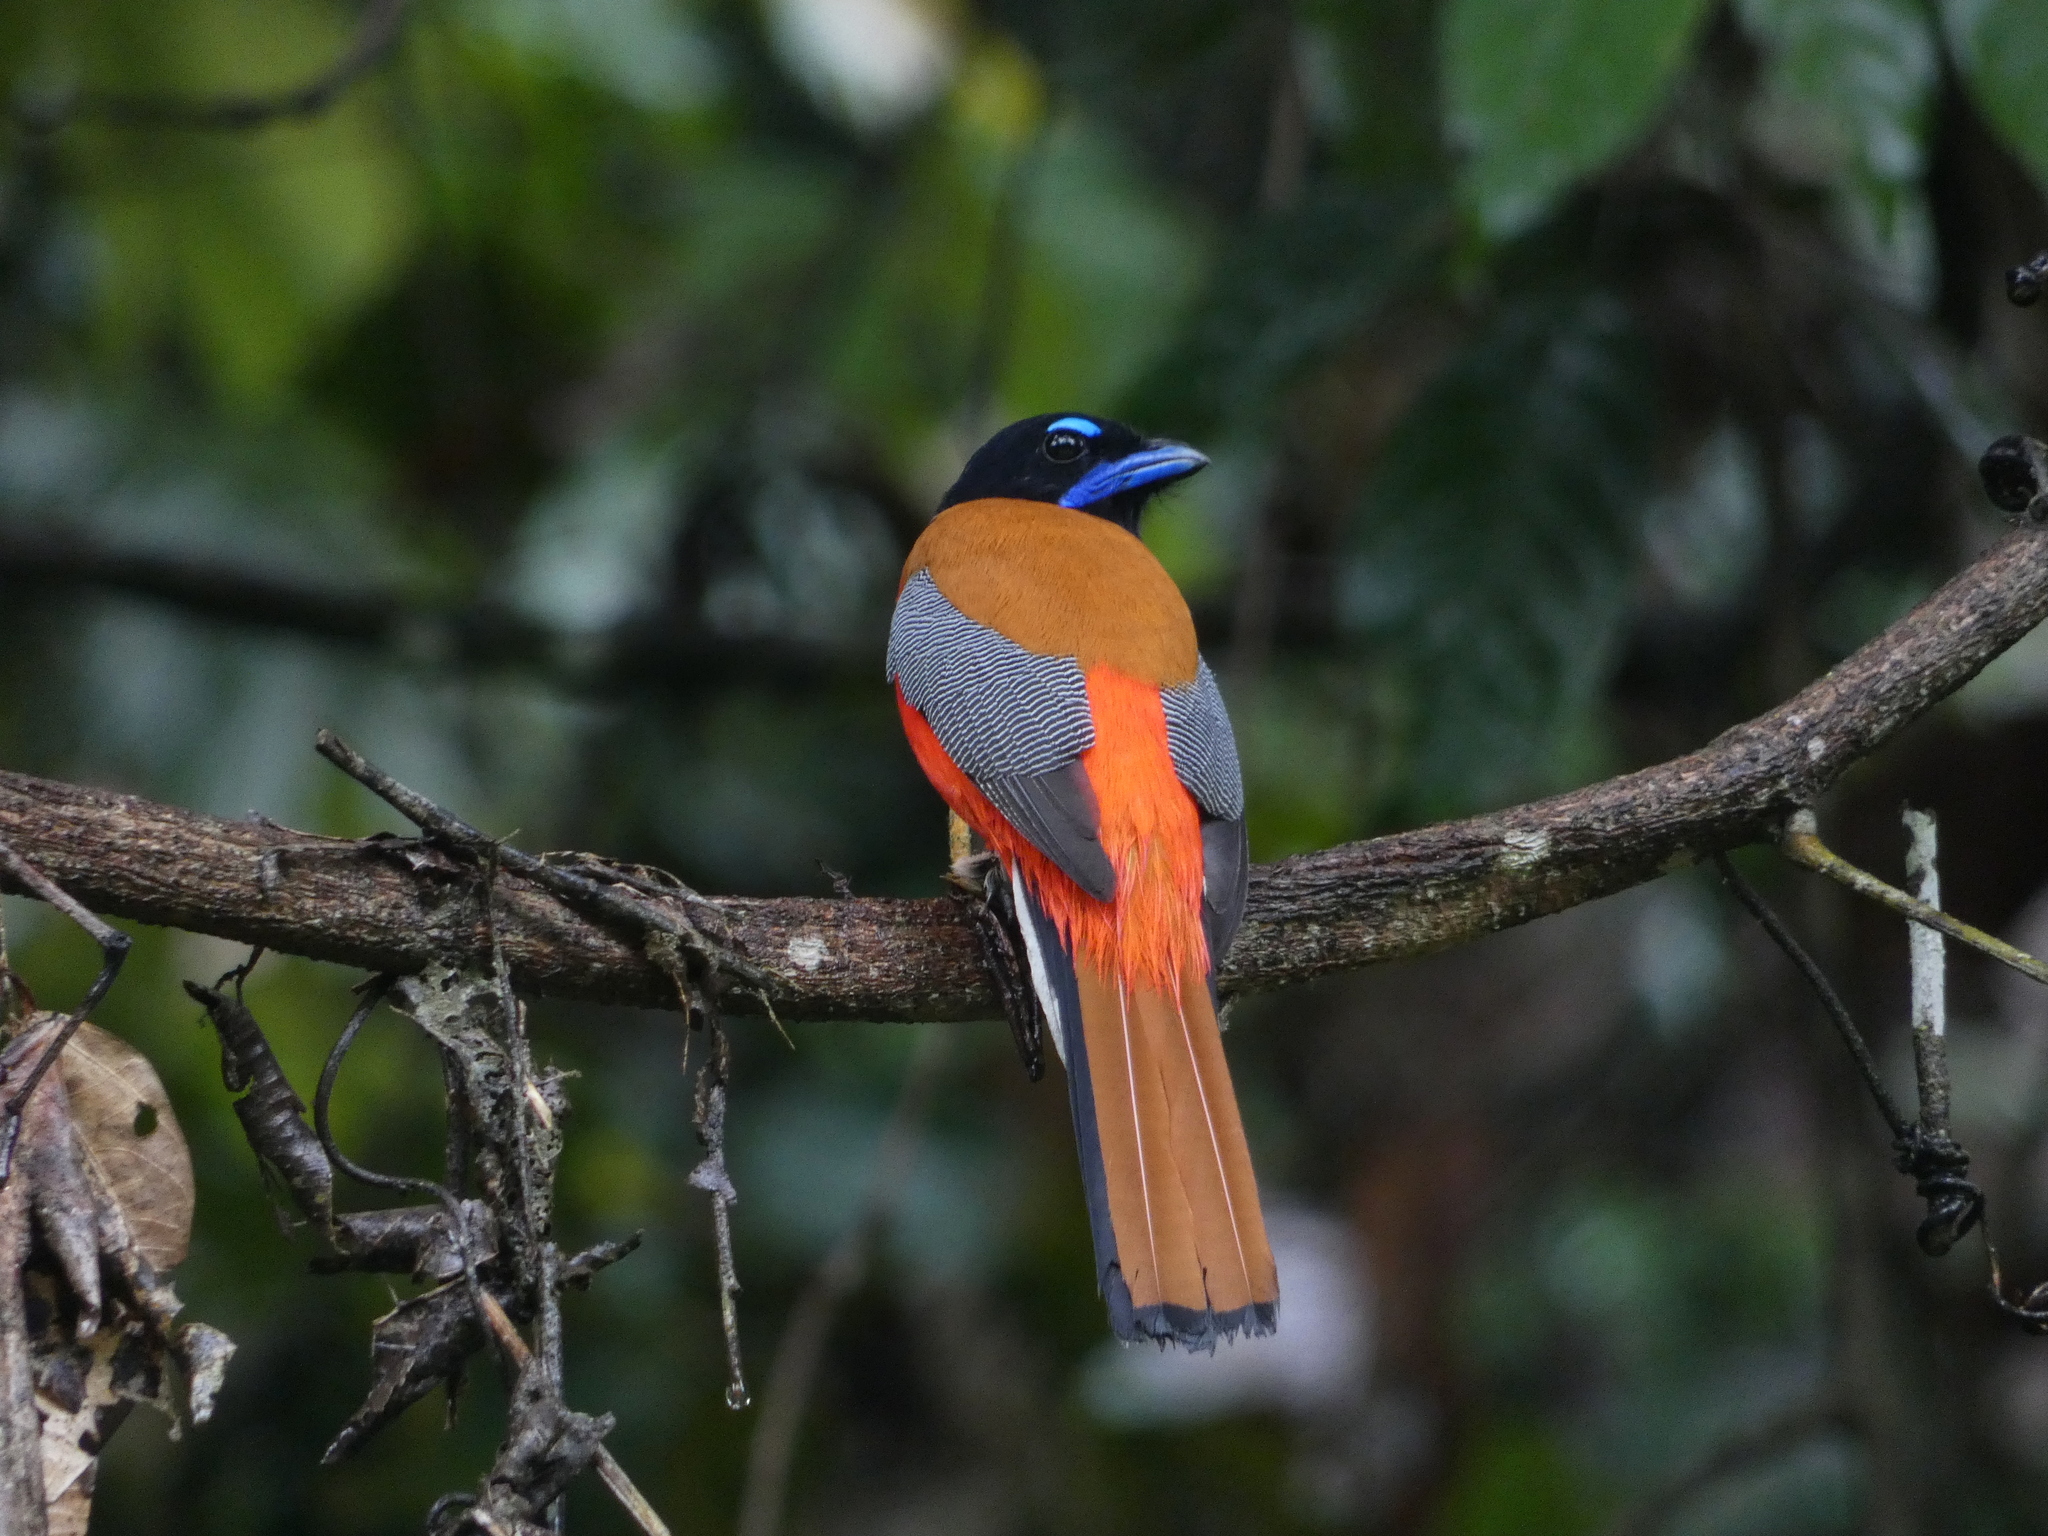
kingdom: Animalia
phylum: Chordata
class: Aves
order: Trogoniformes
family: Trogonidae
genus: Harpactes
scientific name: Harpactes duvaucelii
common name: Scarlet-rumped trogon
